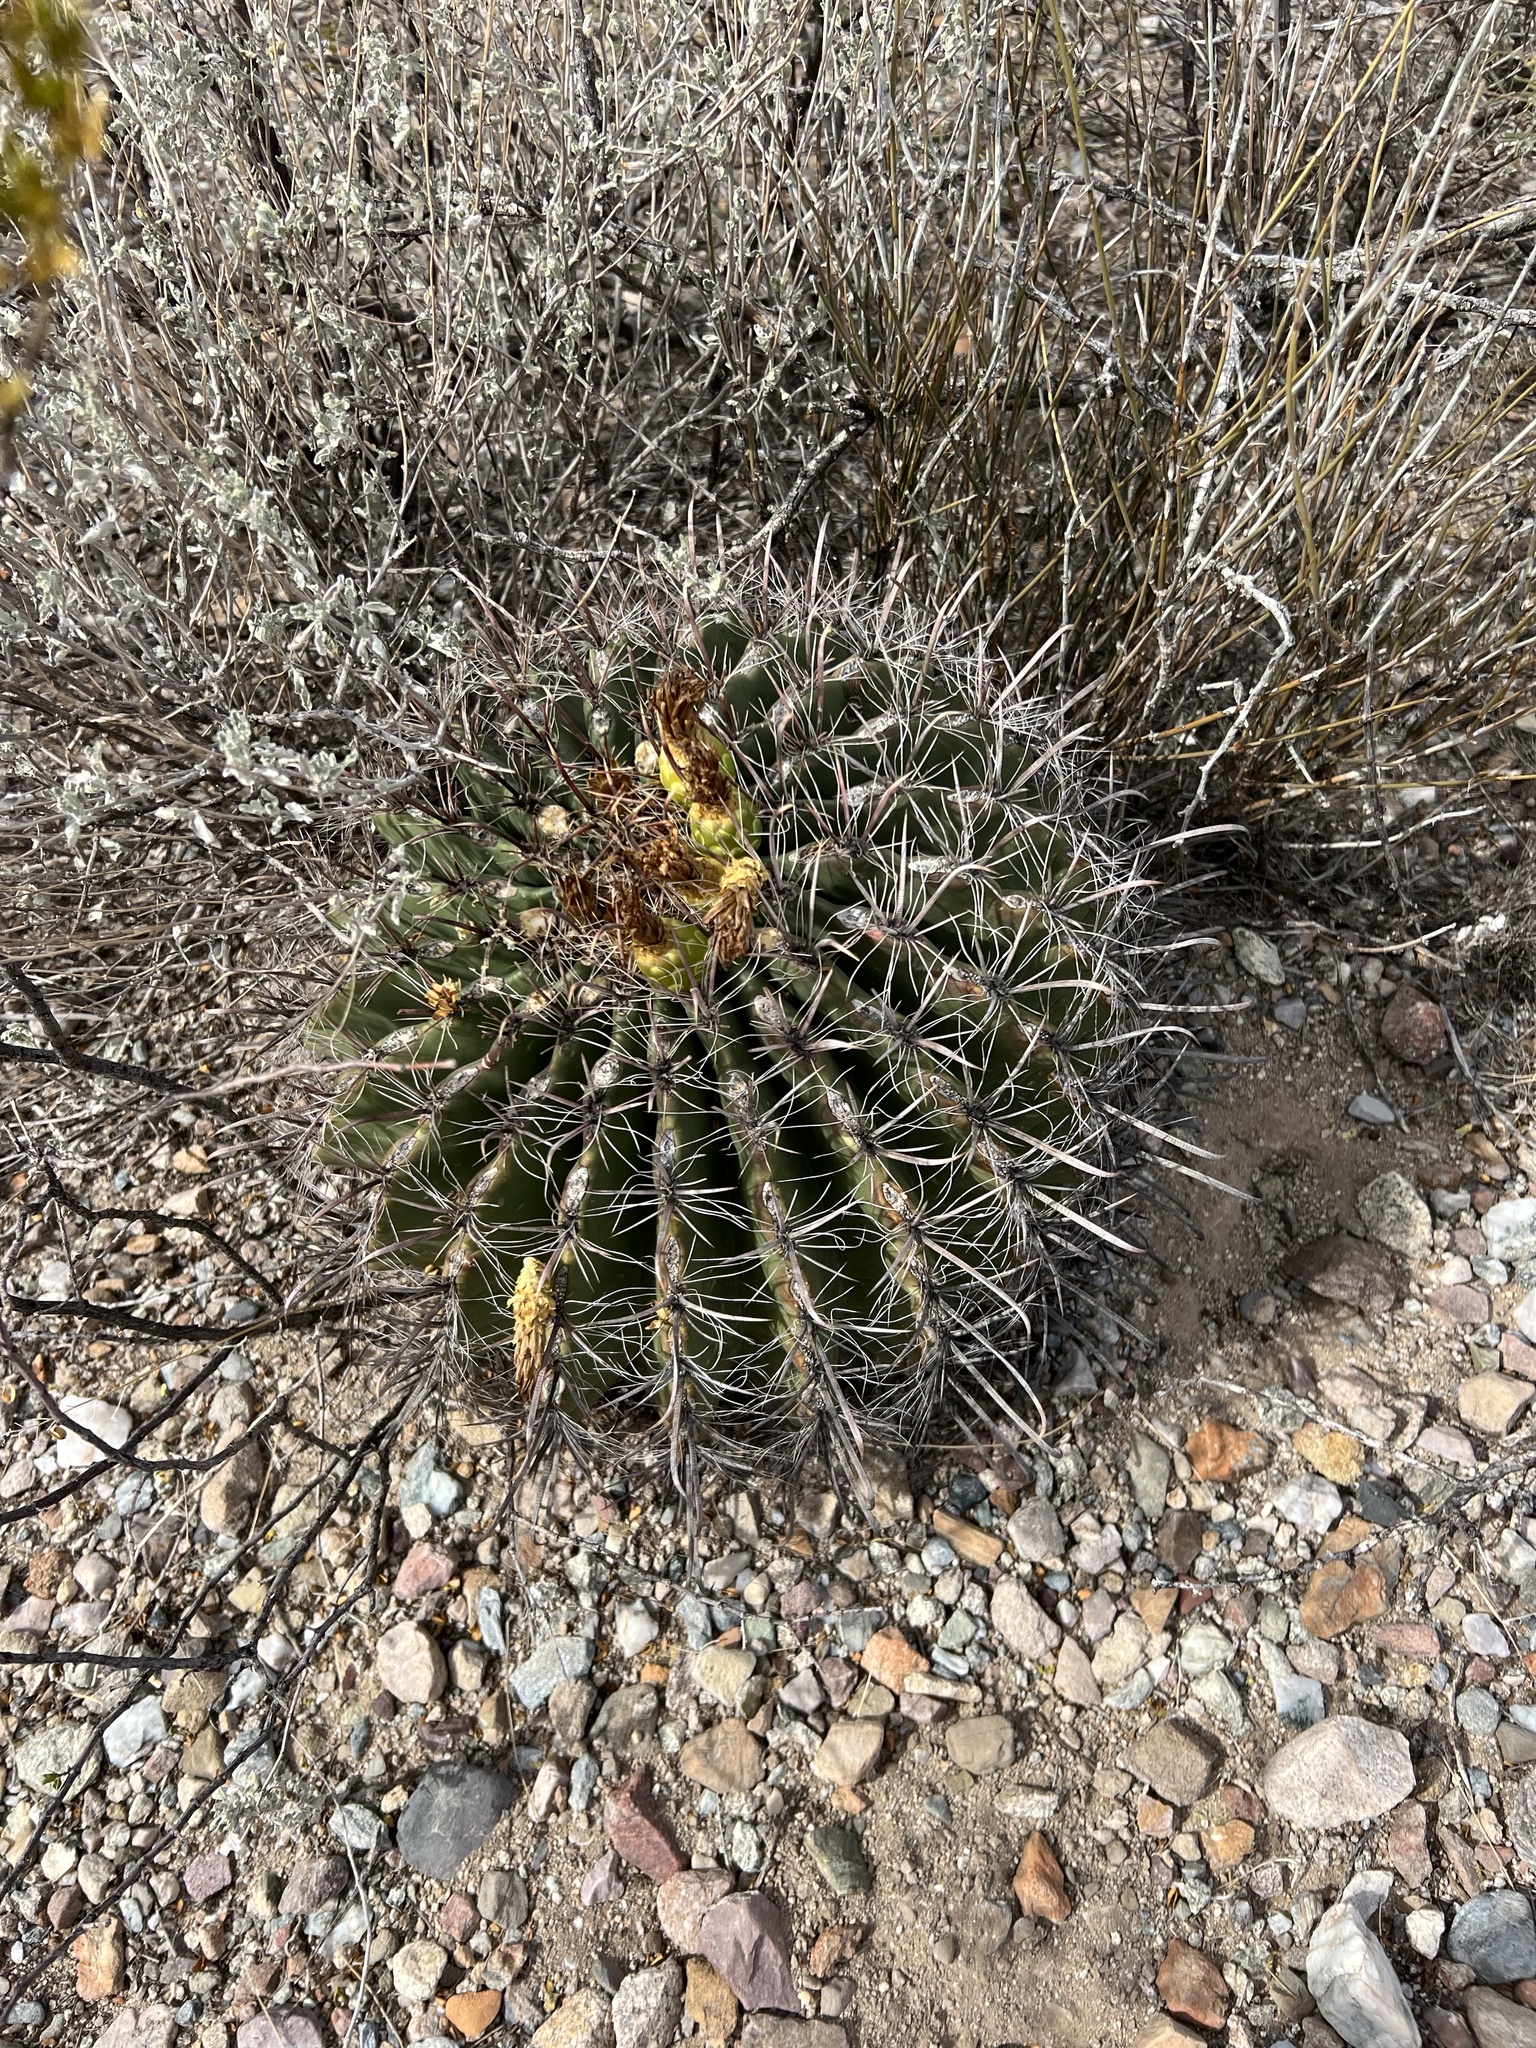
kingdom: Plantae
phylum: Tracheophyta
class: Magnoliopsida
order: Caryophyllales
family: Cactaceae
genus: Ferocactus
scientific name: Ferocactus wislizeni
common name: Candy barrel cactus
